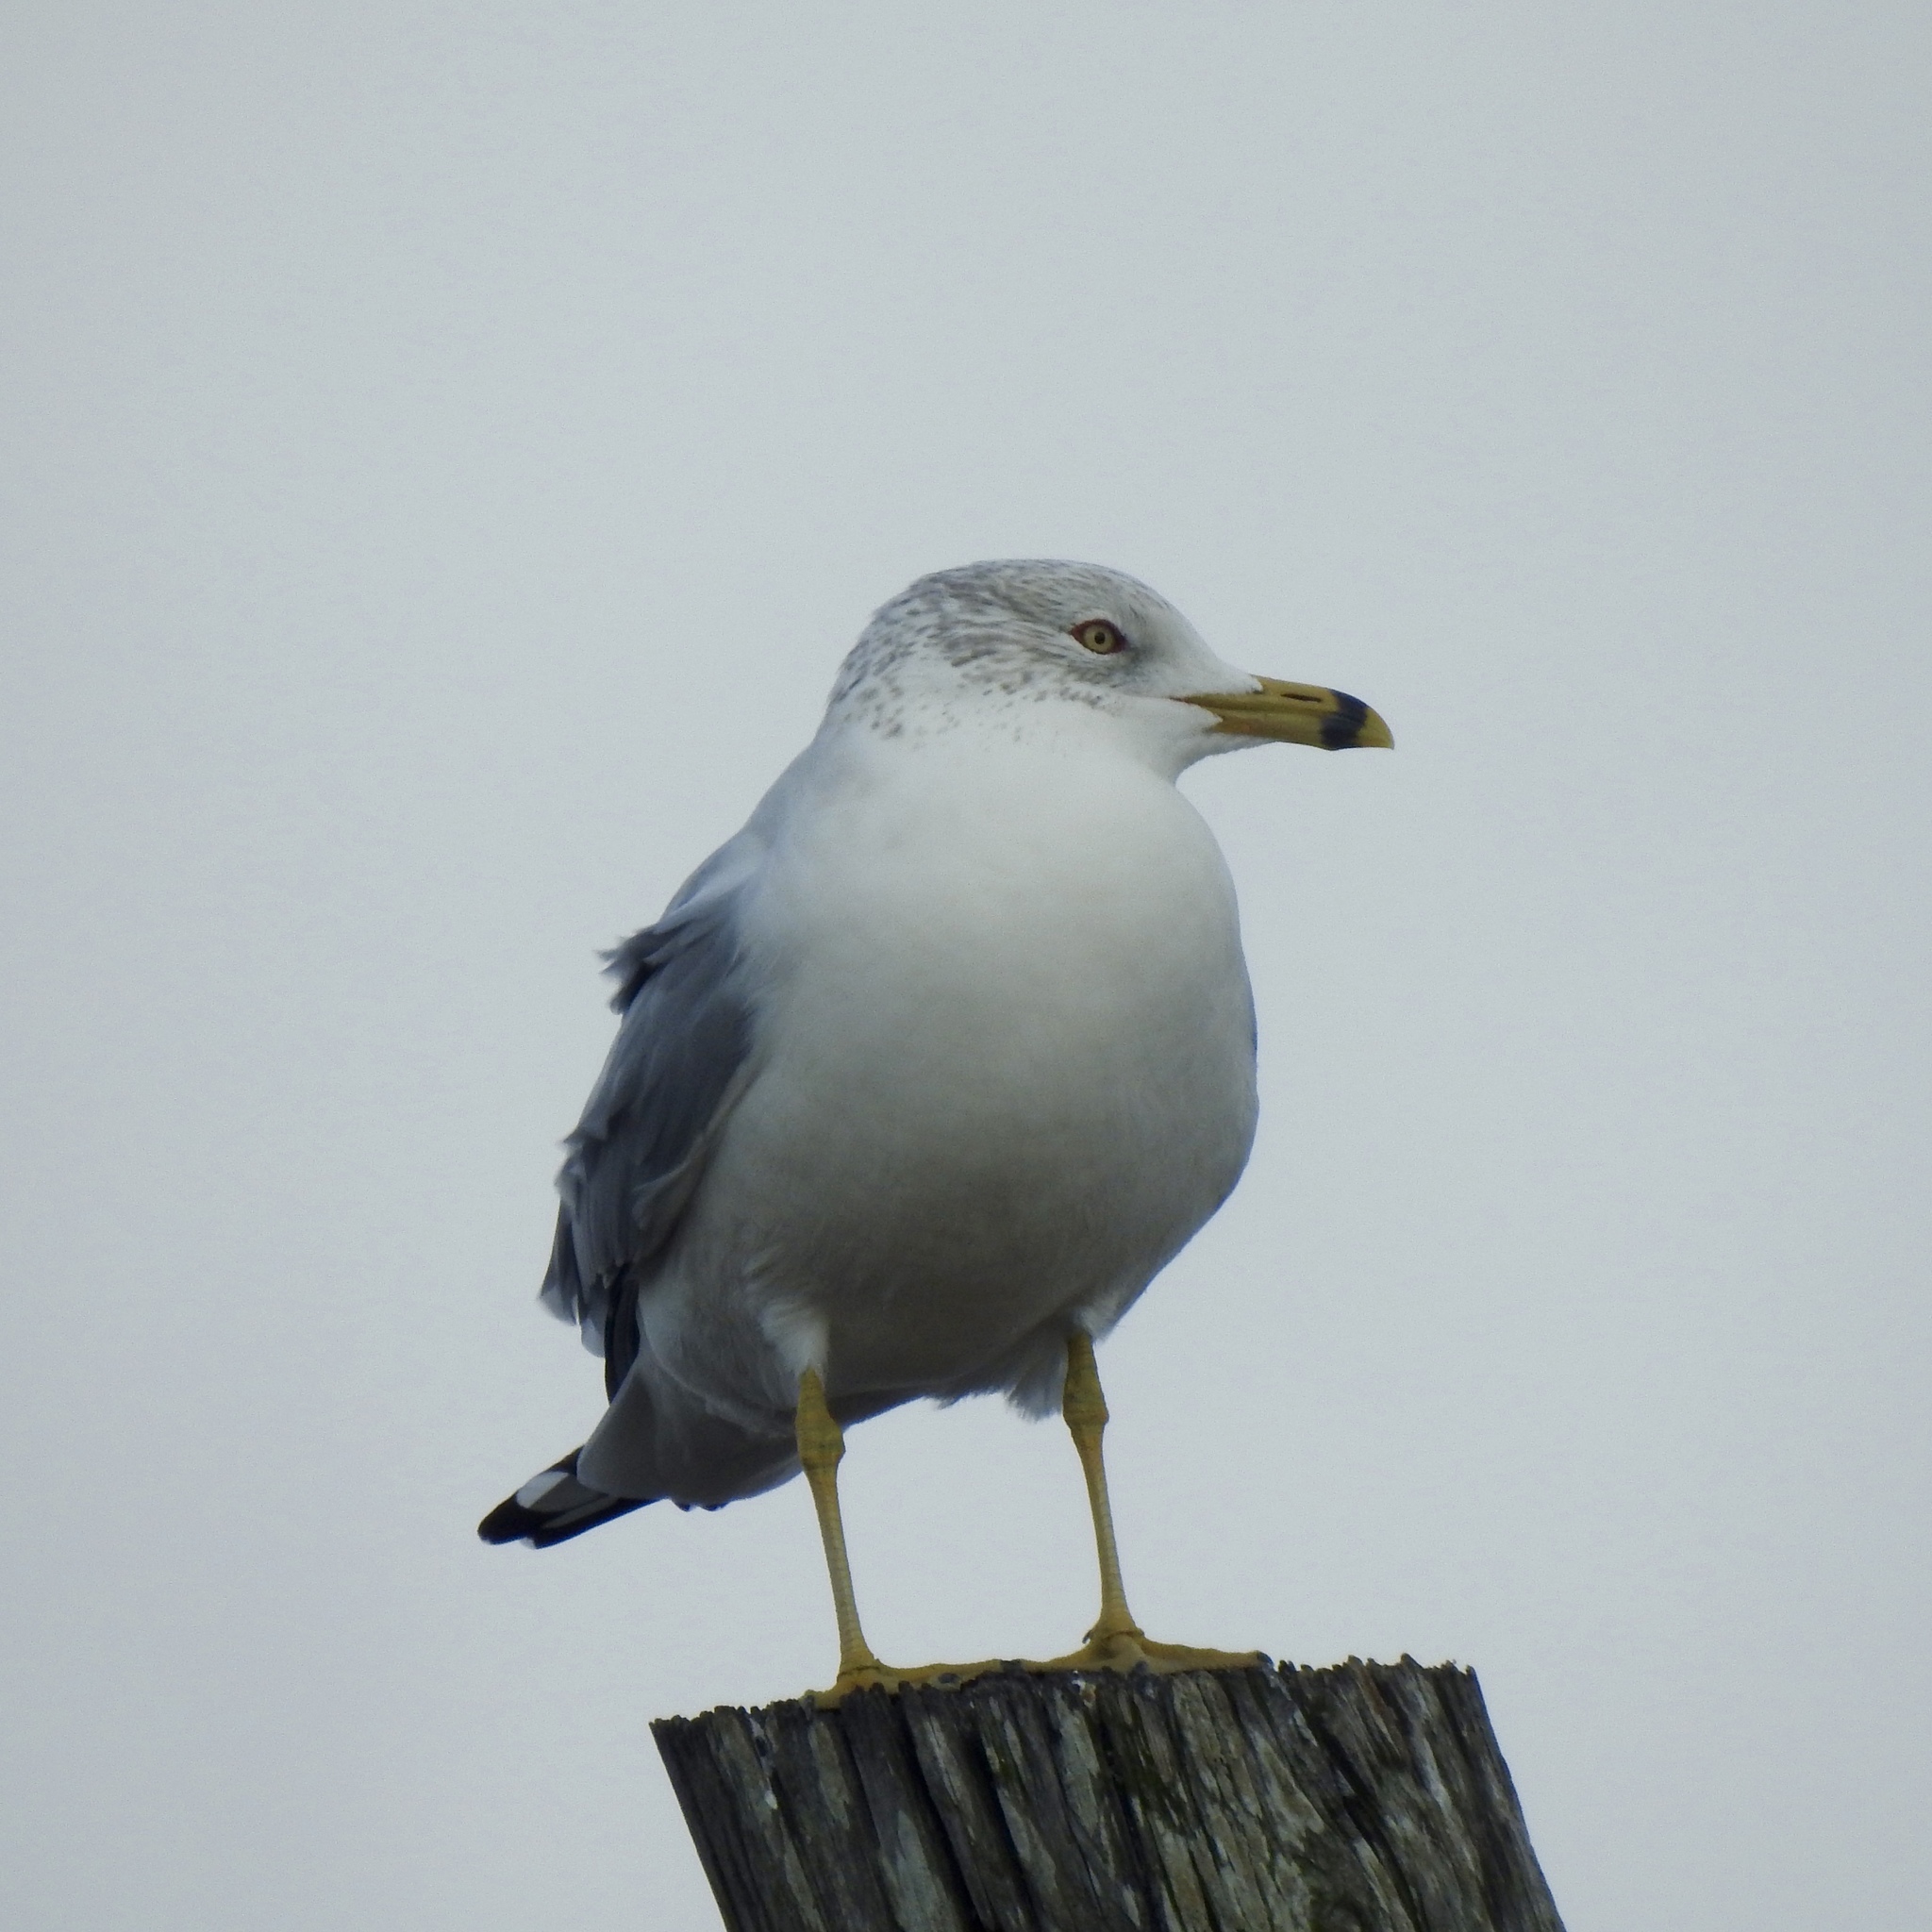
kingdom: Animalia
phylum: Chordata
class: Aves
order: Charadriiformes
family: Laridae
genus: Larus
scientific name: Larus delawarensis
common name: Ring-billed gull
